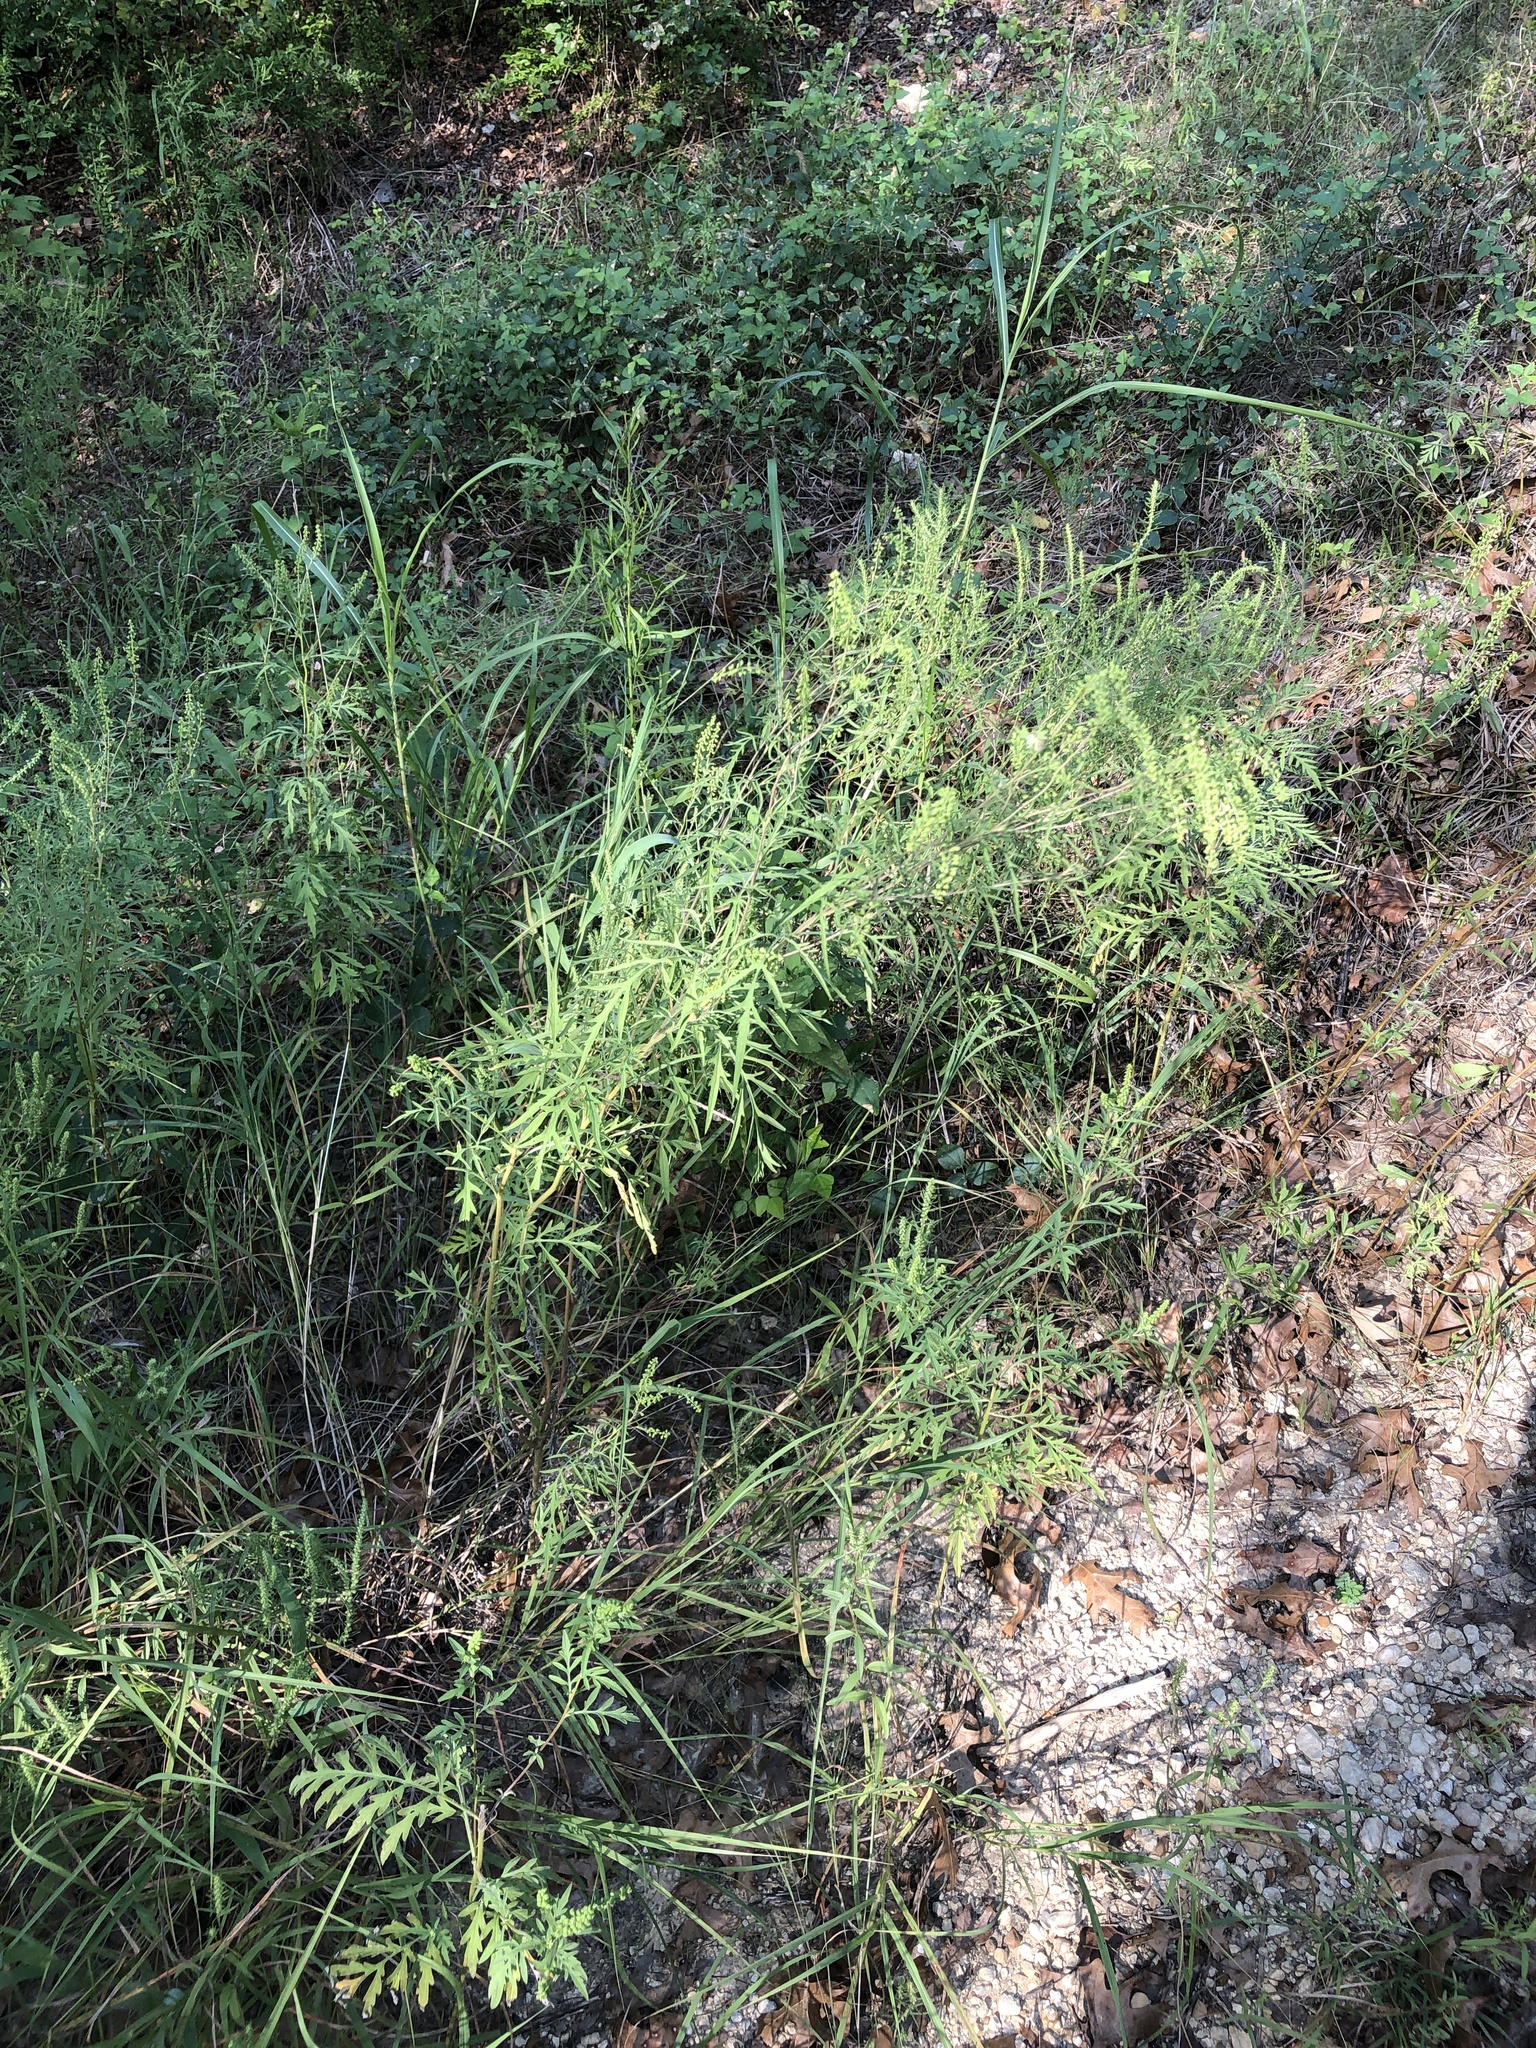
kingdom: Plantae
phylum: Tracheophyta
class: Magnoliopsida
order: Asterales
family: Asteraceae
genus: Ambrosia
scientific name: Ambrosia artemisiifolia
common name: Annual ragweed
